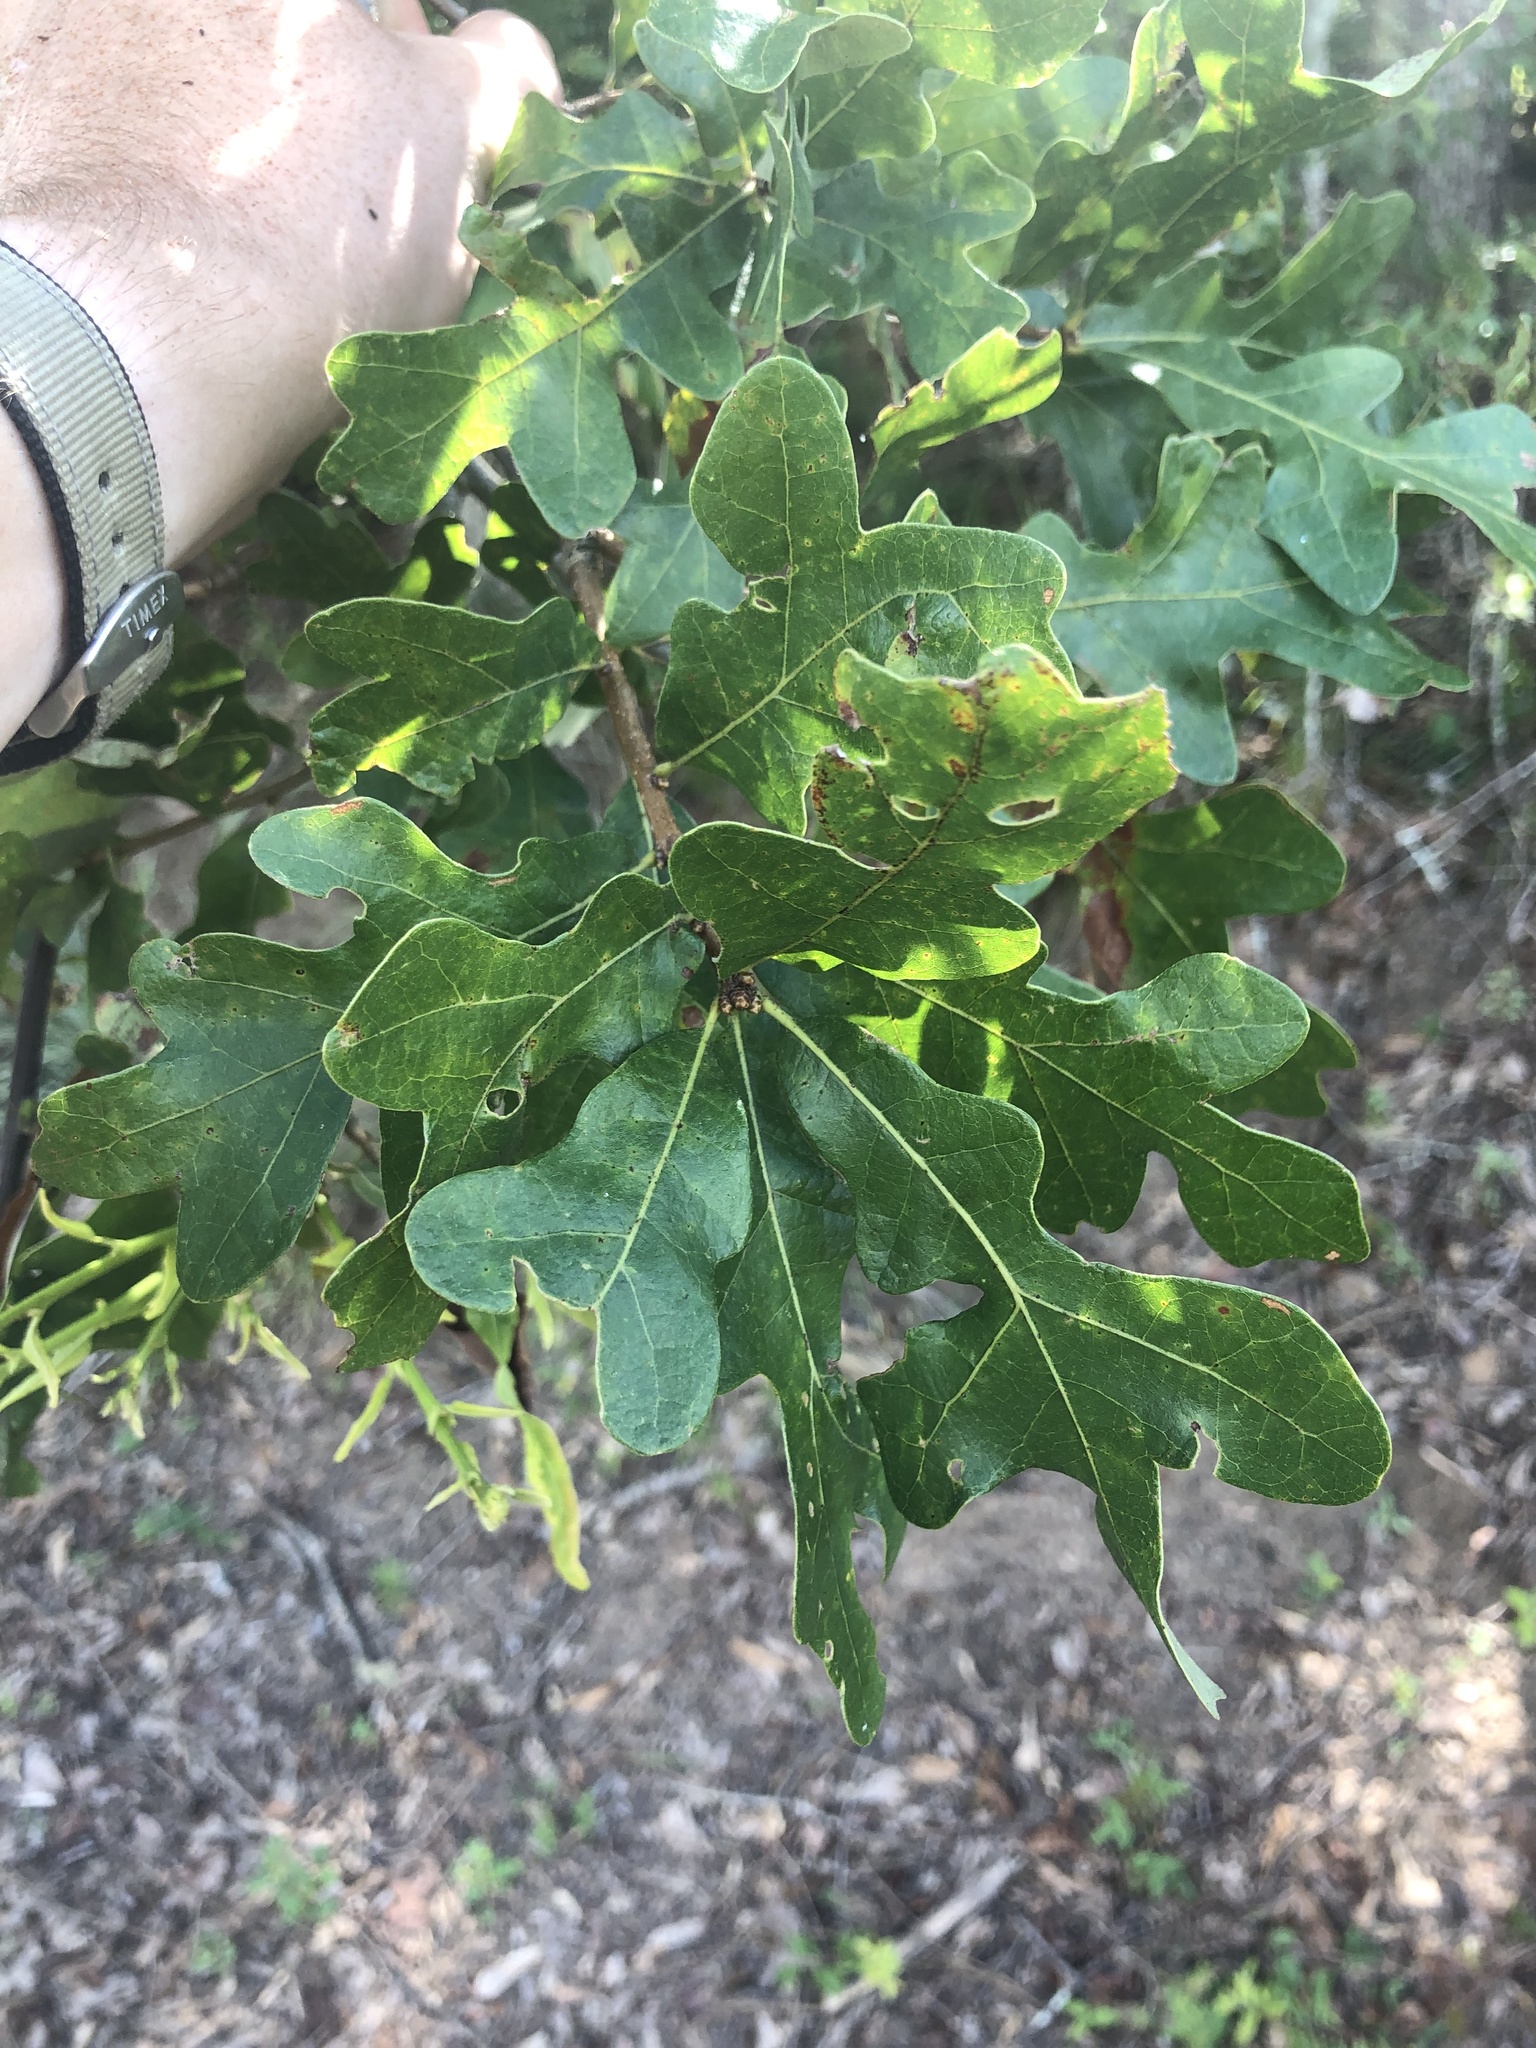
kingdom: Plantae
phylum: Tracheophyta
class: Magnoliopsida
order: Fagales
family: Fagaceae
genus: Quercus
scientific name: Quercus margaretiae
